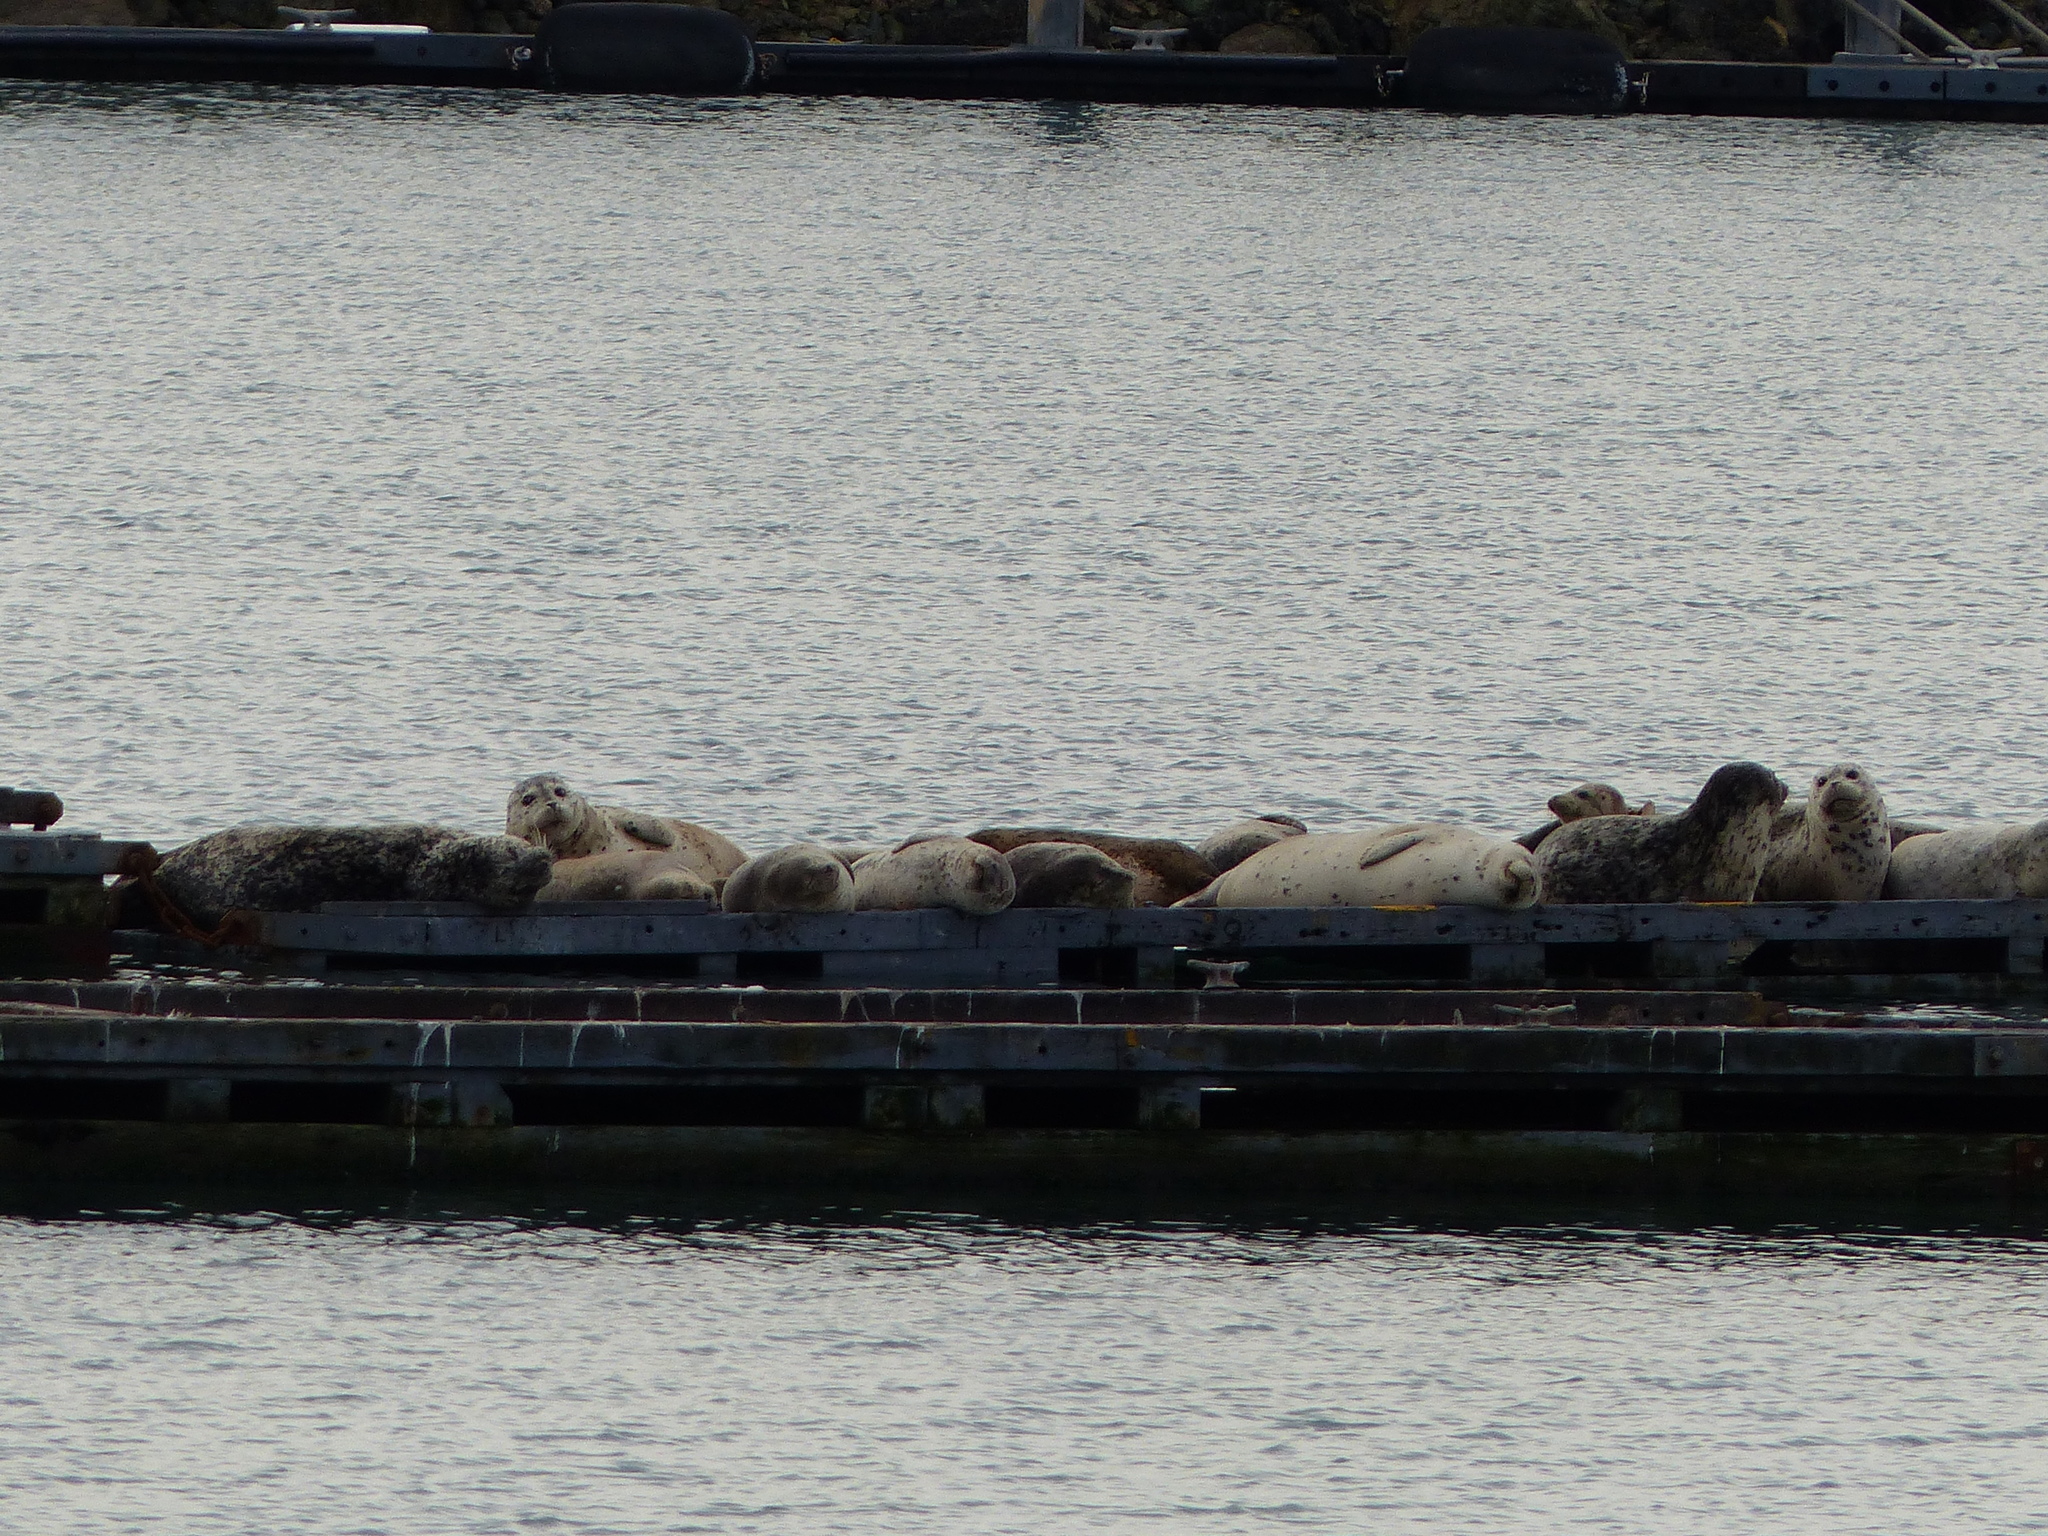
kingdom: Animalia
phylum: Chordata
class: Mammalia
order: Carnivora
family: Phocidae
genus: Phoca
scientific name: Phoca vitulina
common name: Harbor seal
